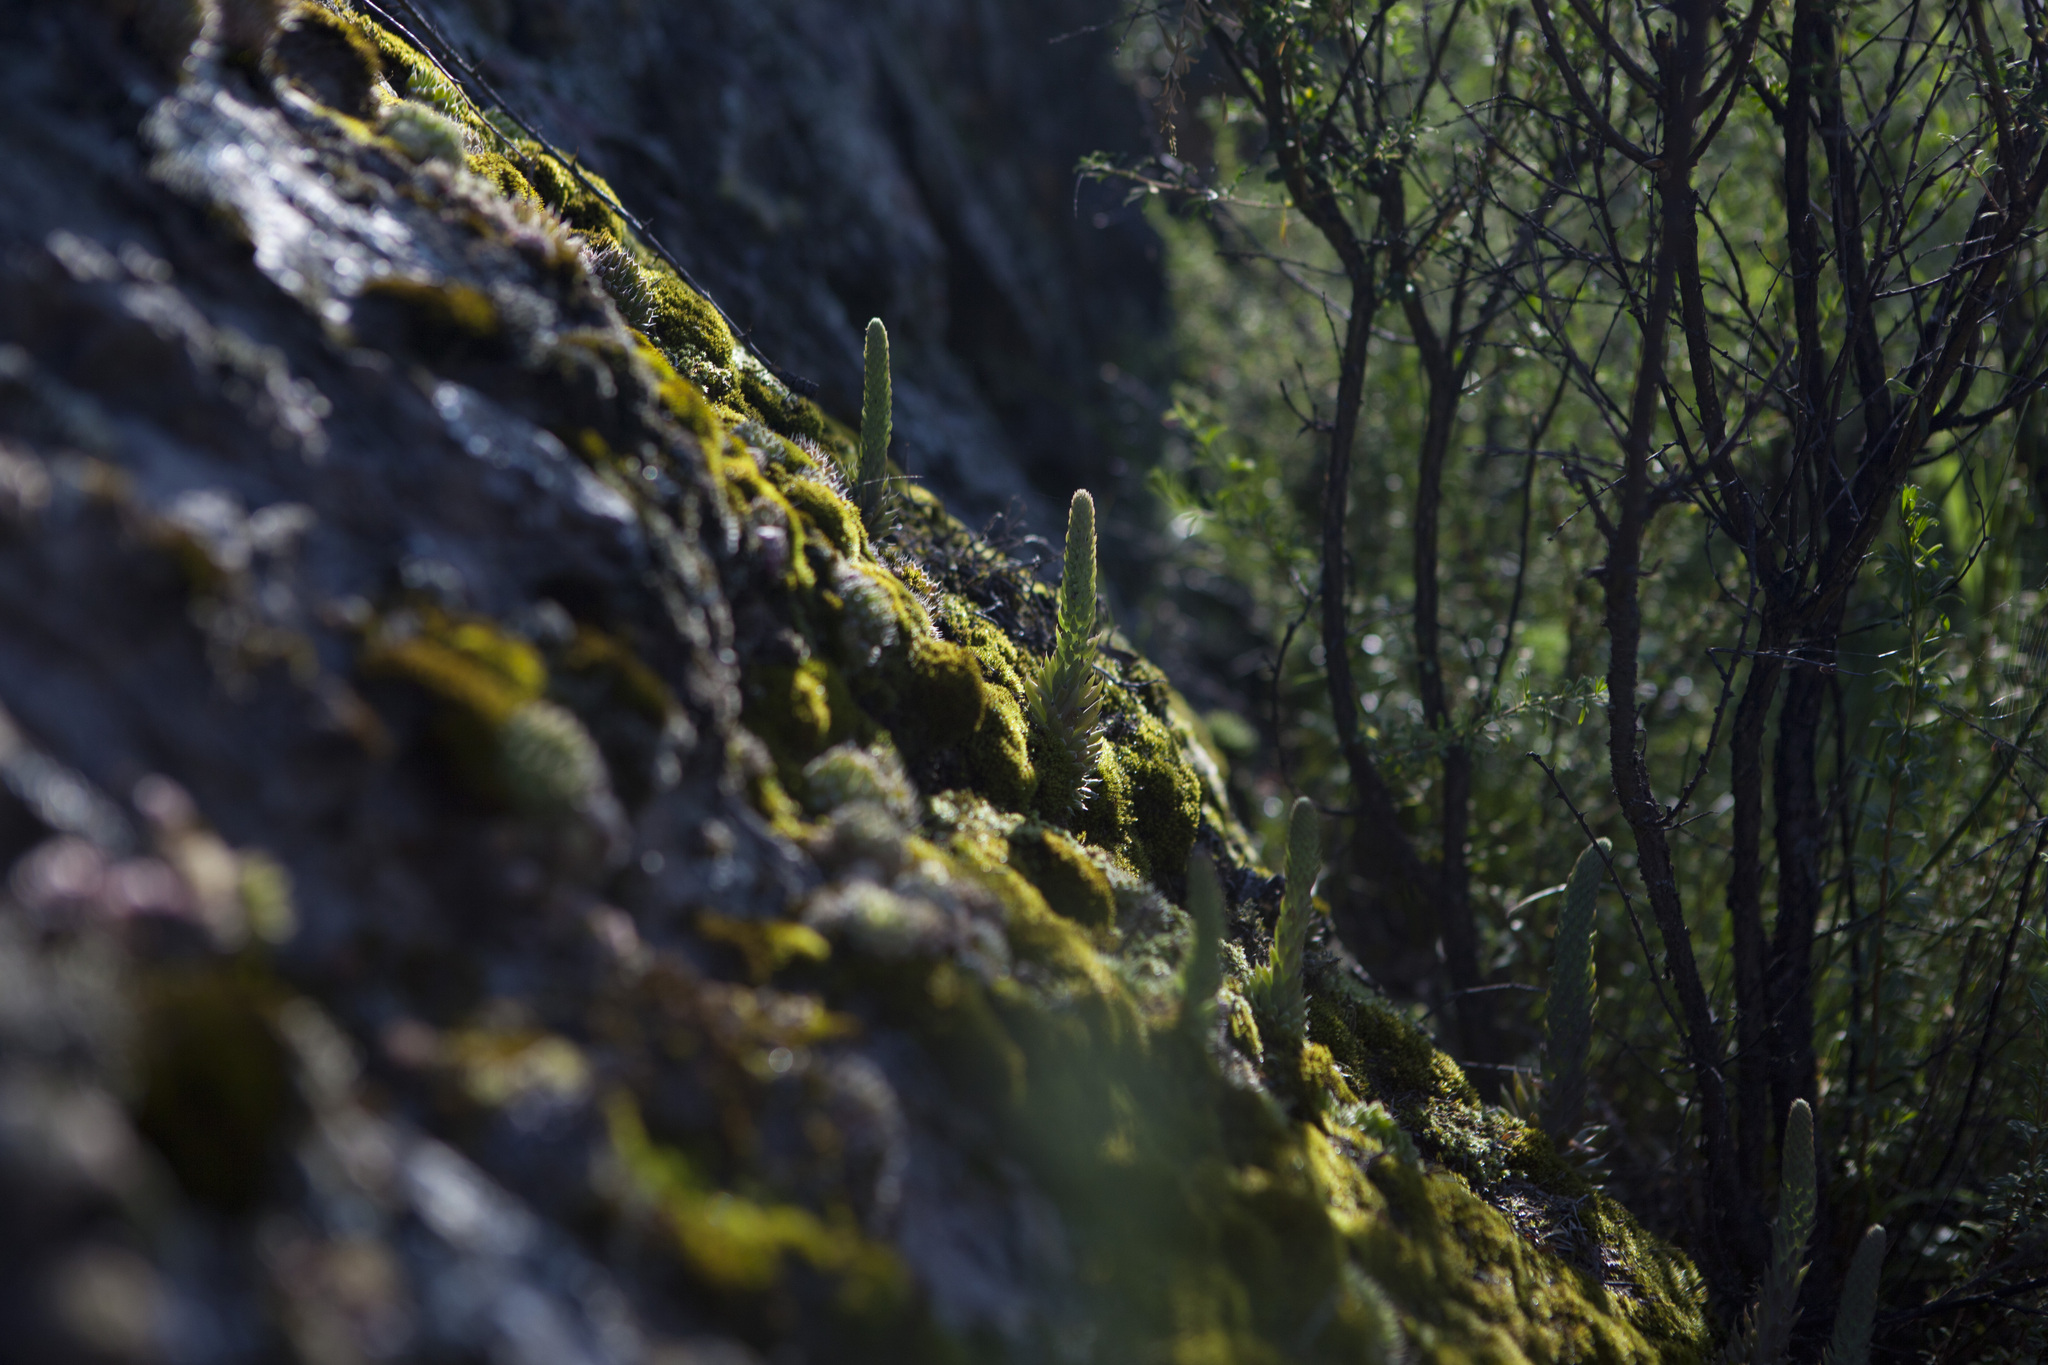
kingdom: Plantae
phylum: Tracheophyta
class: Magnoliopsida
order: Saxifragales
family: Crassulaceae
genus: Orostachys
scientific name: Orostachys spinosa
